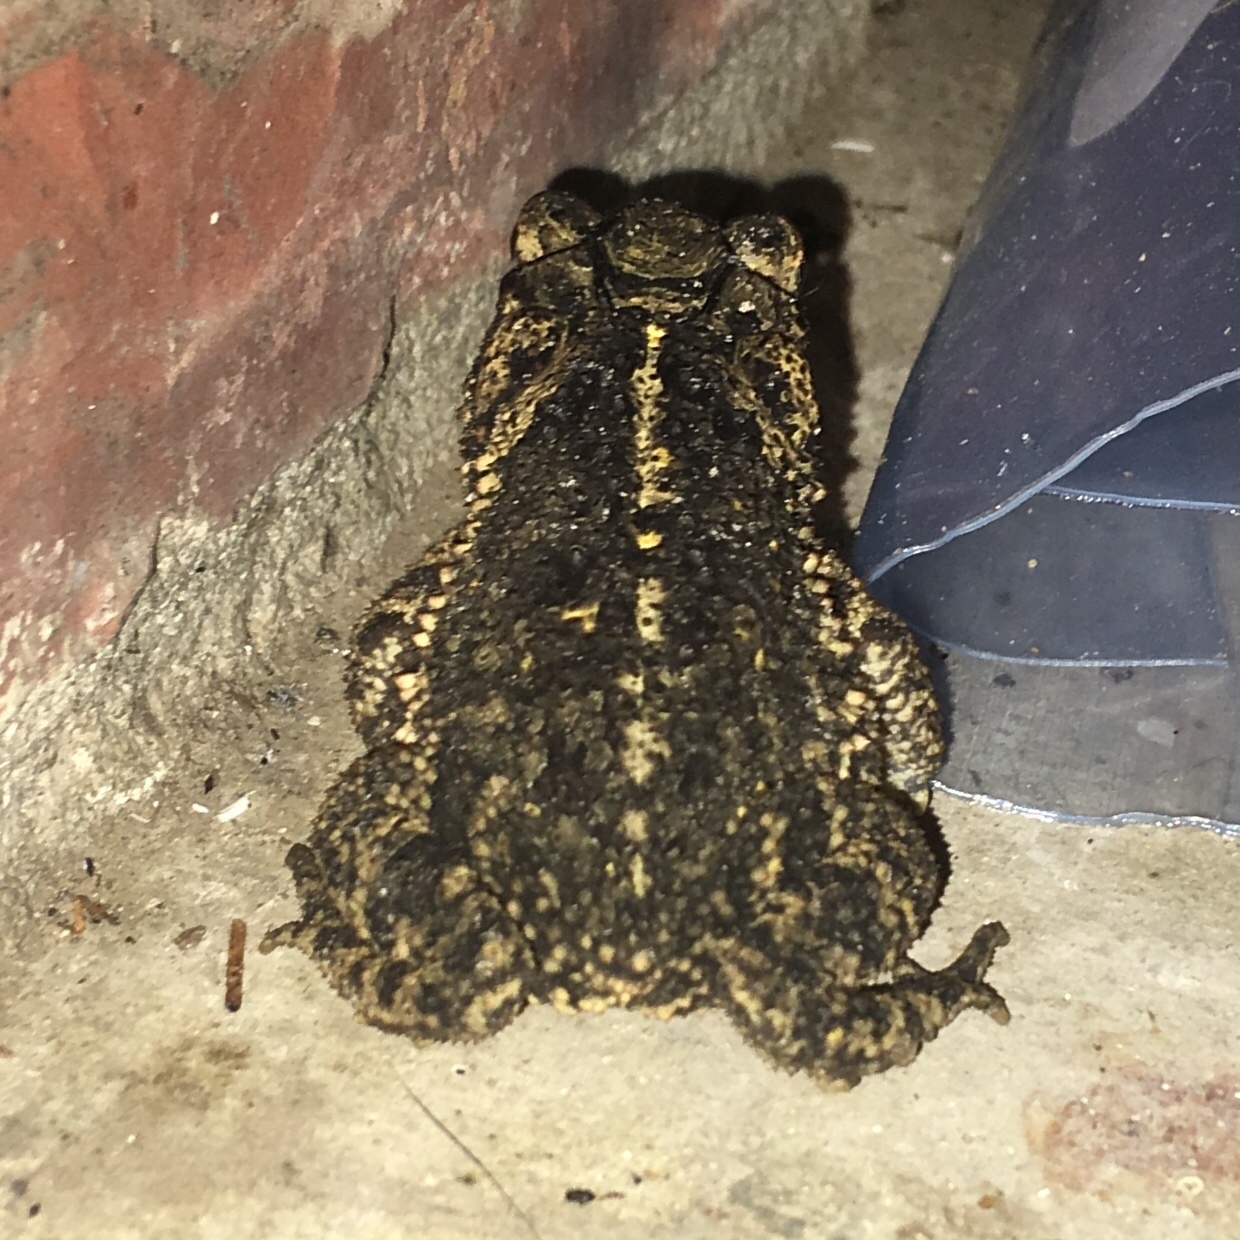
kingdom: Animalia
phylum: Chordata
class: Amphibia
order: Anura
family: Bufonidae
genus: Incilius
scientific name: Incilius nebulifer
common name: Gulf coast toad
